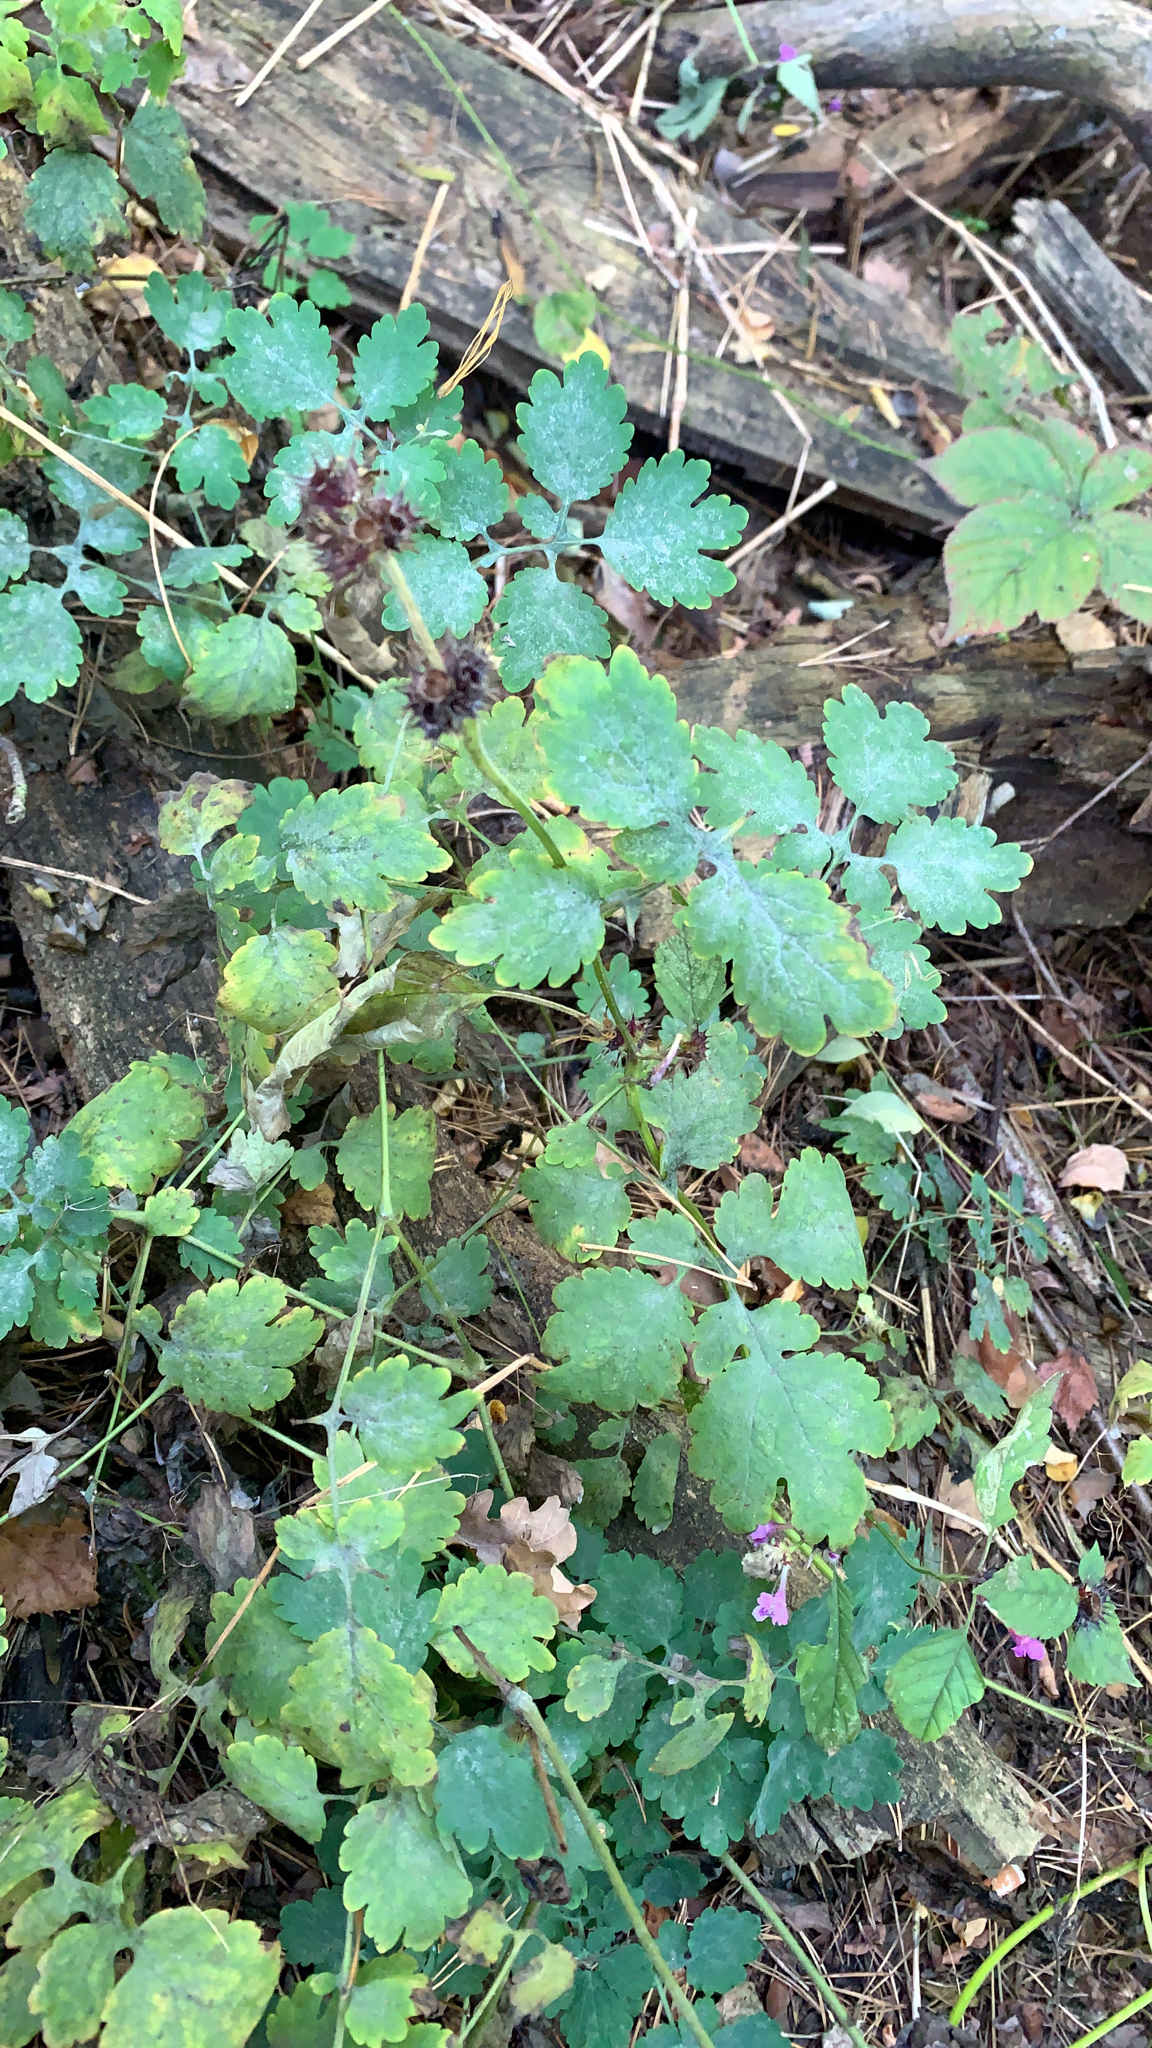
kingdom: Plantae
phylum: Tracheophyta
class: Magnoliopsida
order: Ranunculales
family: Papaveraceae
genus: Chelidonium
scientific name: Chelidonium majus
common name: Greater celandine
